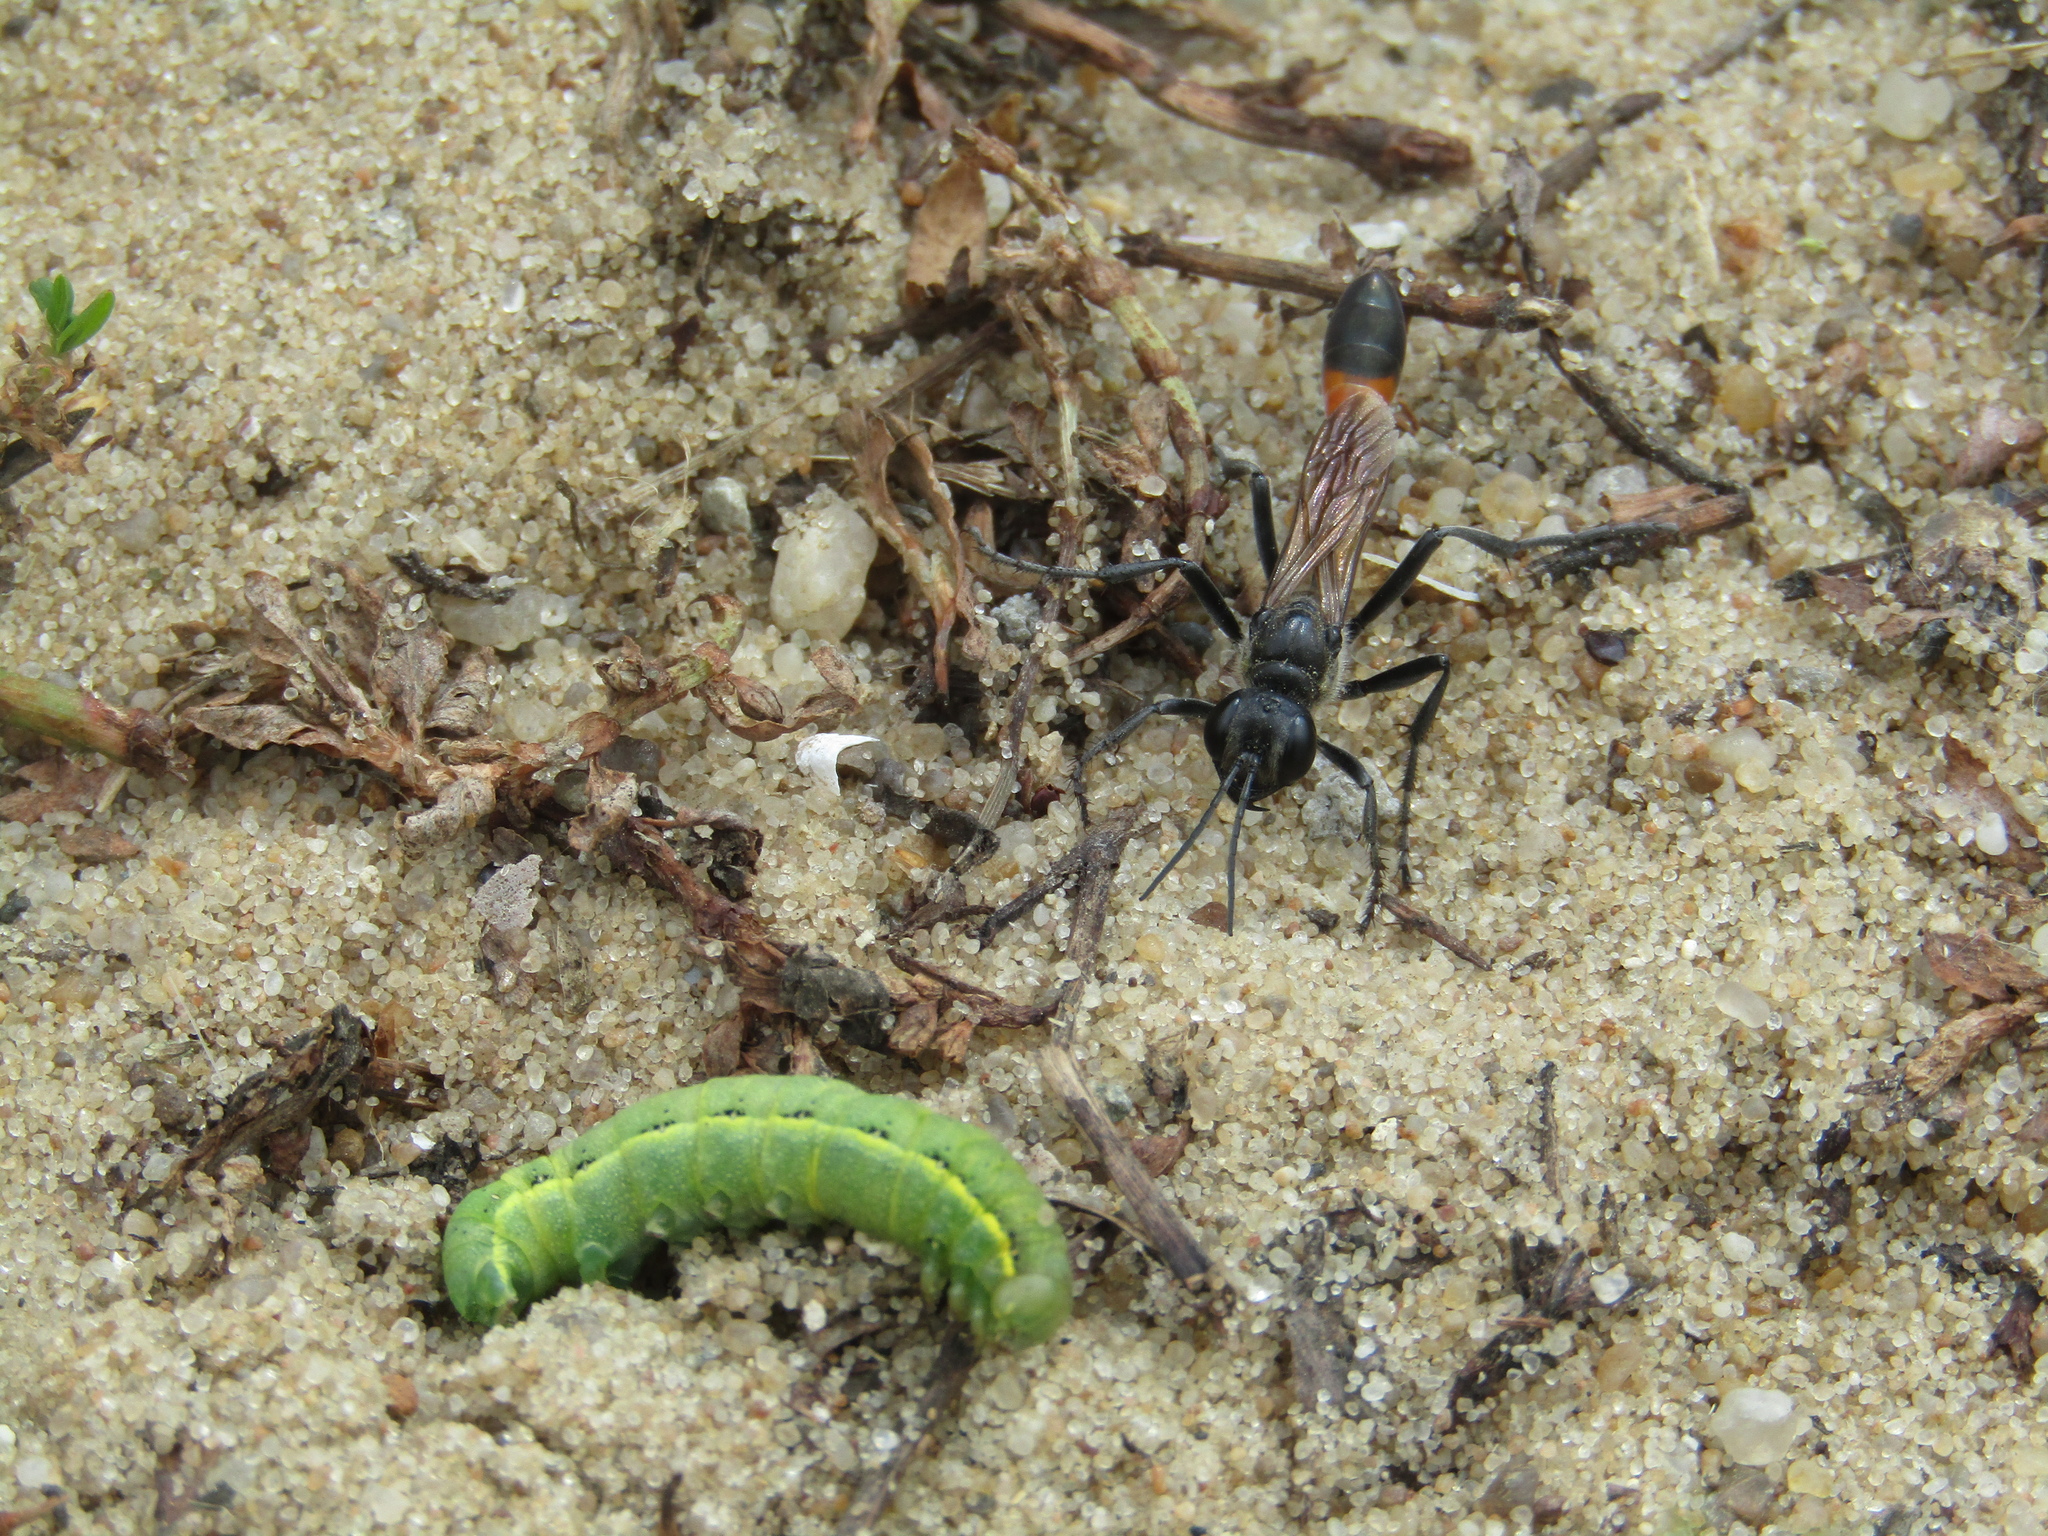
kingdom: Animalia
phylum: Arthropoda
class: Insecta
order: Hymenoptera
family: Sphecidae
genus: Ammophila
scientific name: Ammophila
